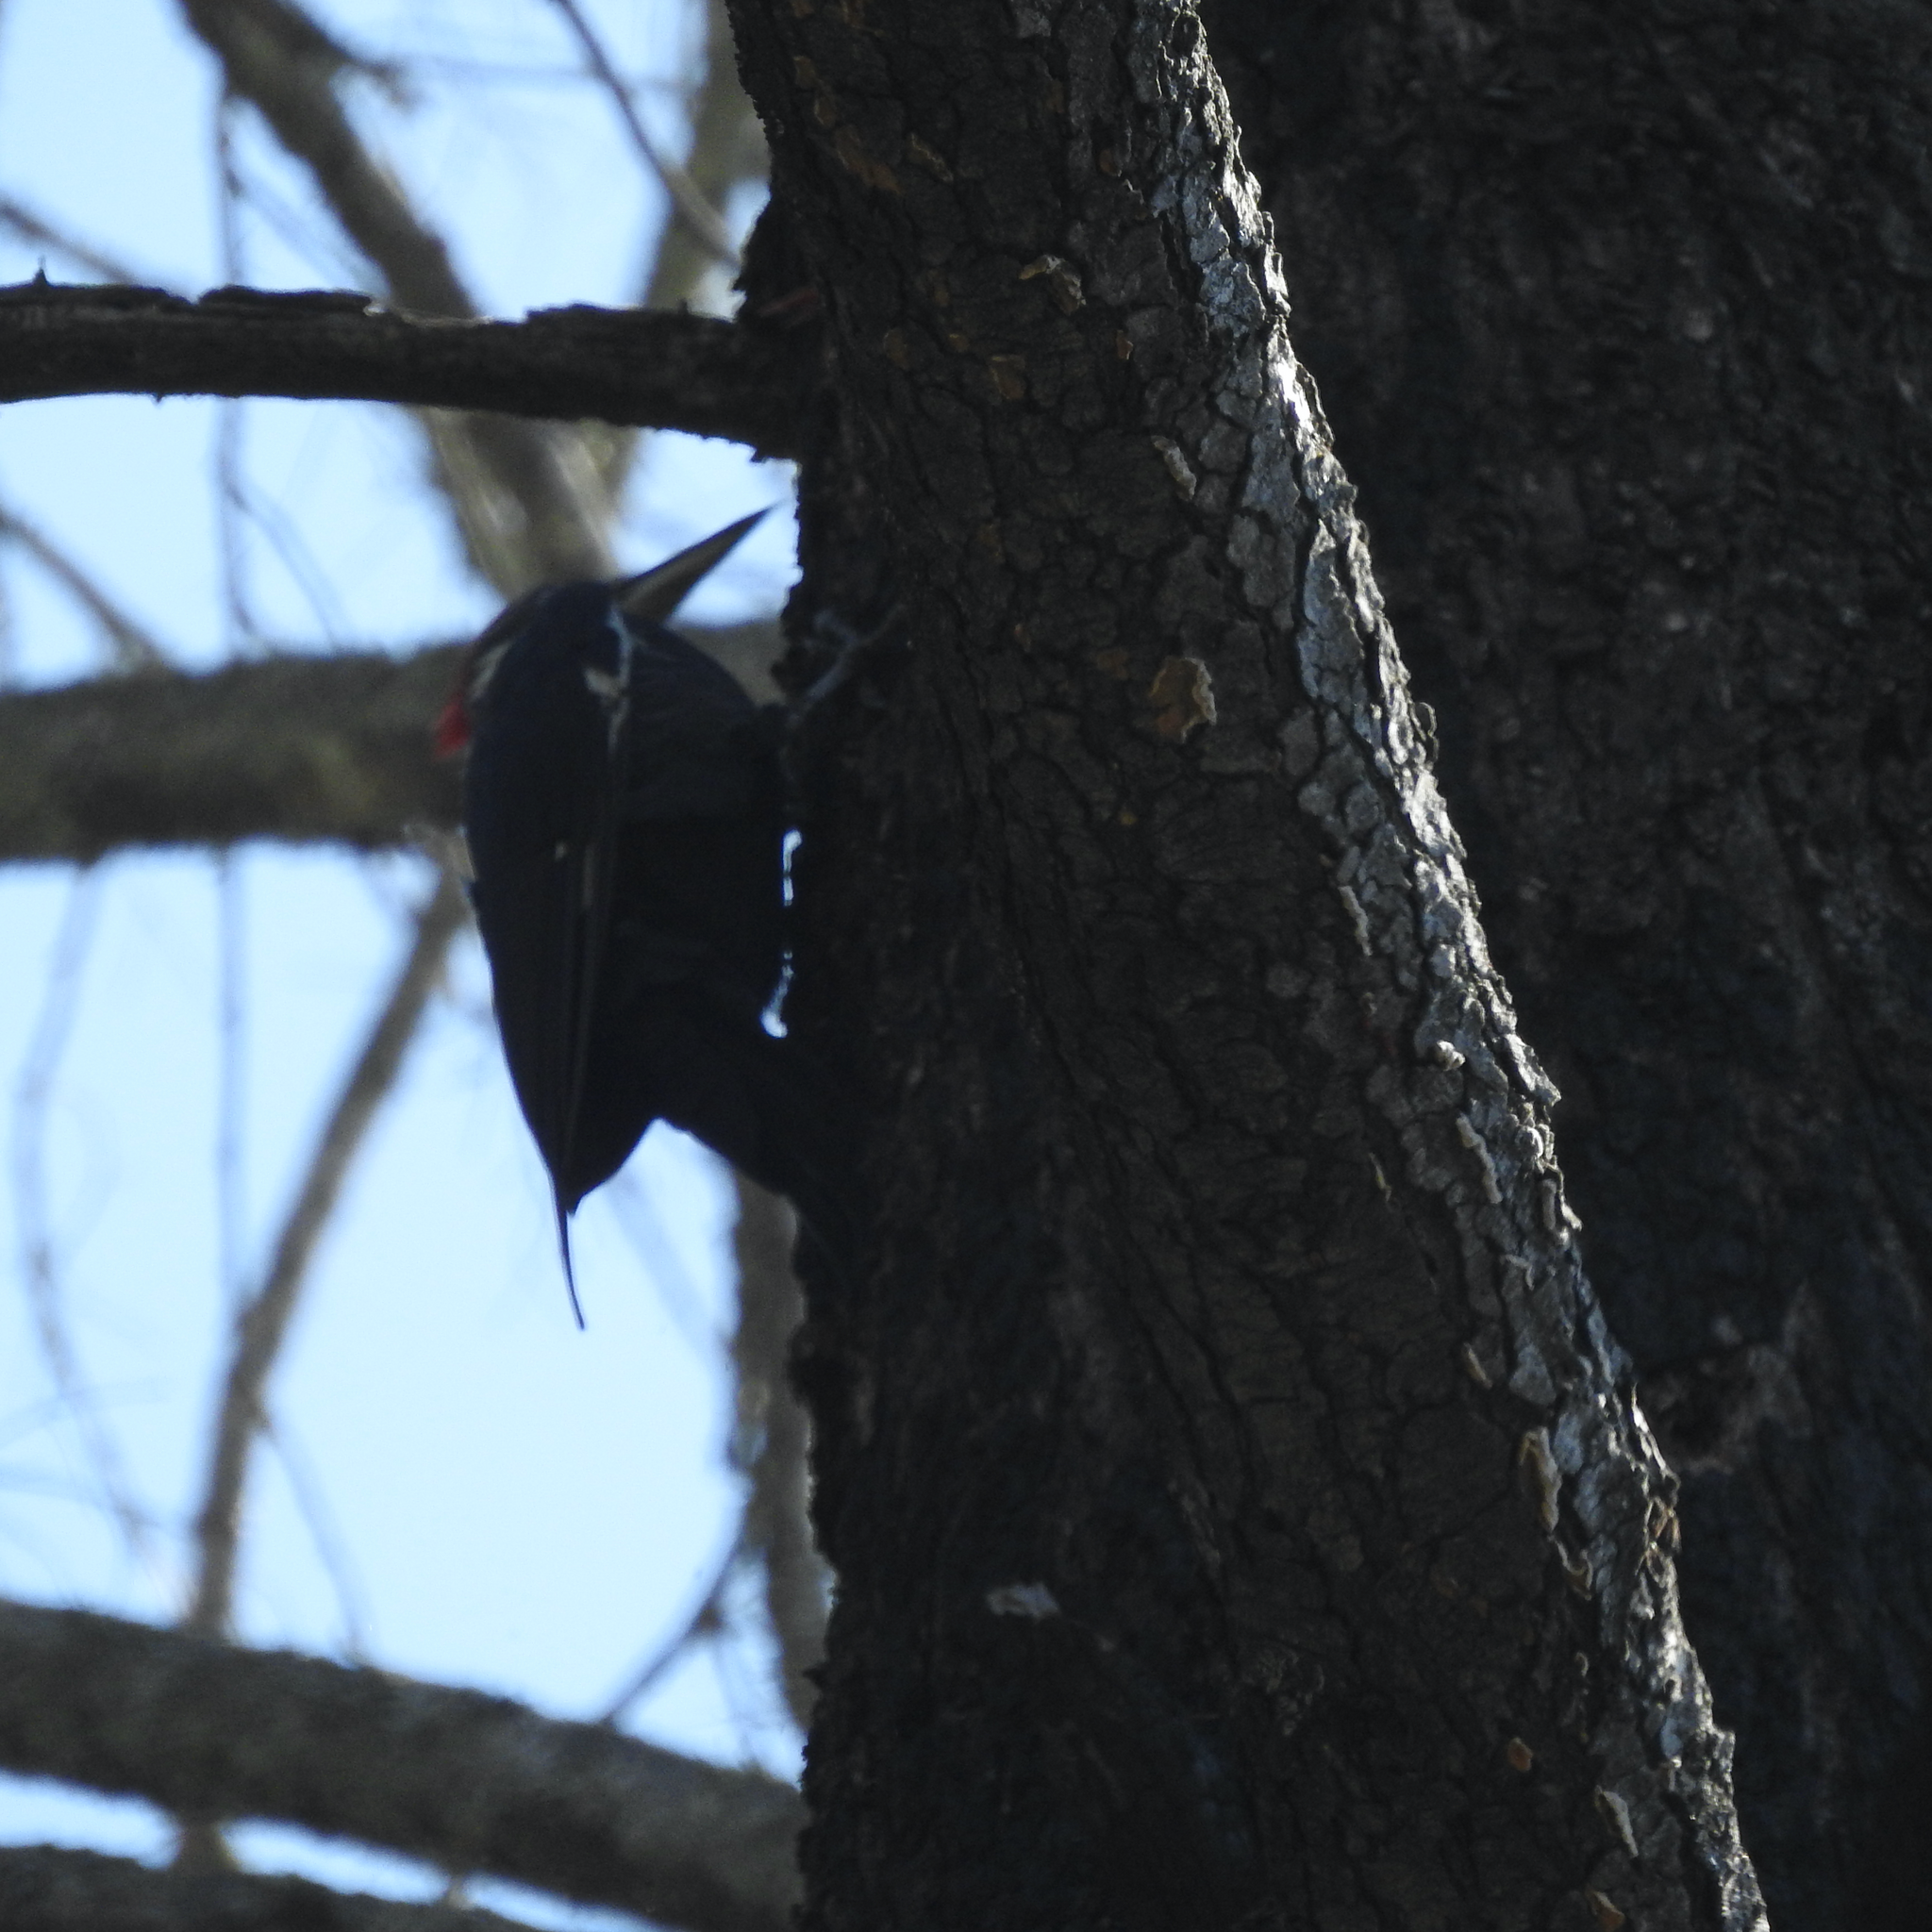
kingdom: Animalia
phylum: Chordata
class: Aves
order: Piciformes
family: Picidae
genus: Dryocopus
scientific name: Dryocopus pileatus
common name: Pileated woodpecker
